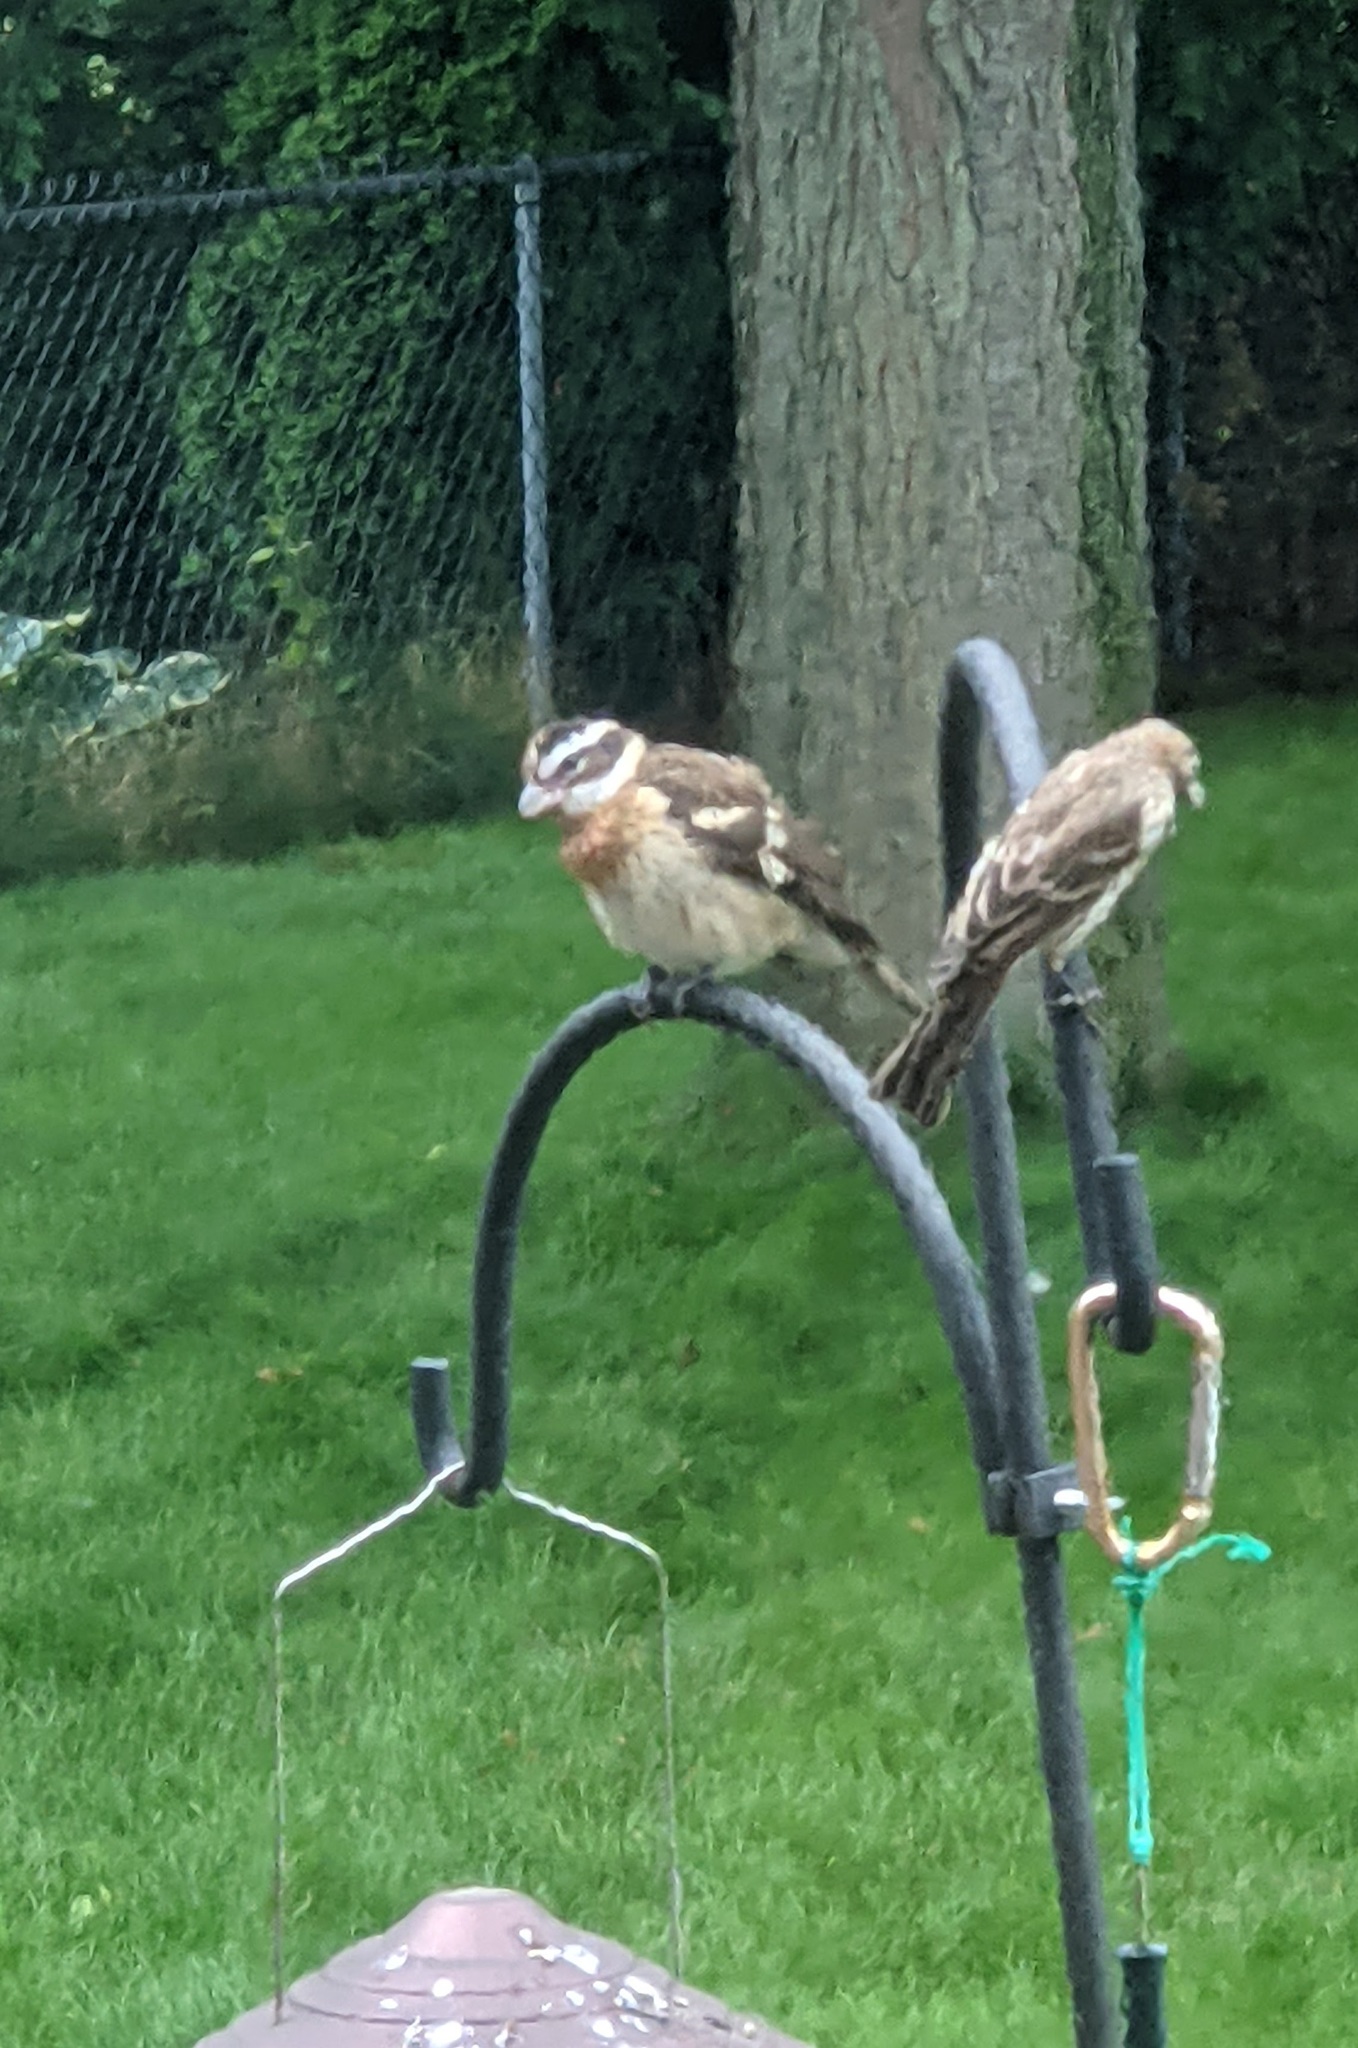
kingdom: Animalia
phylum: Chordata
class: Aves
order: Passeriformes
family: Cardinalidae
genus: Pheucticus
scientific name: Pheucticus ludovicianus
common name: Rose-breasted grosbeak
